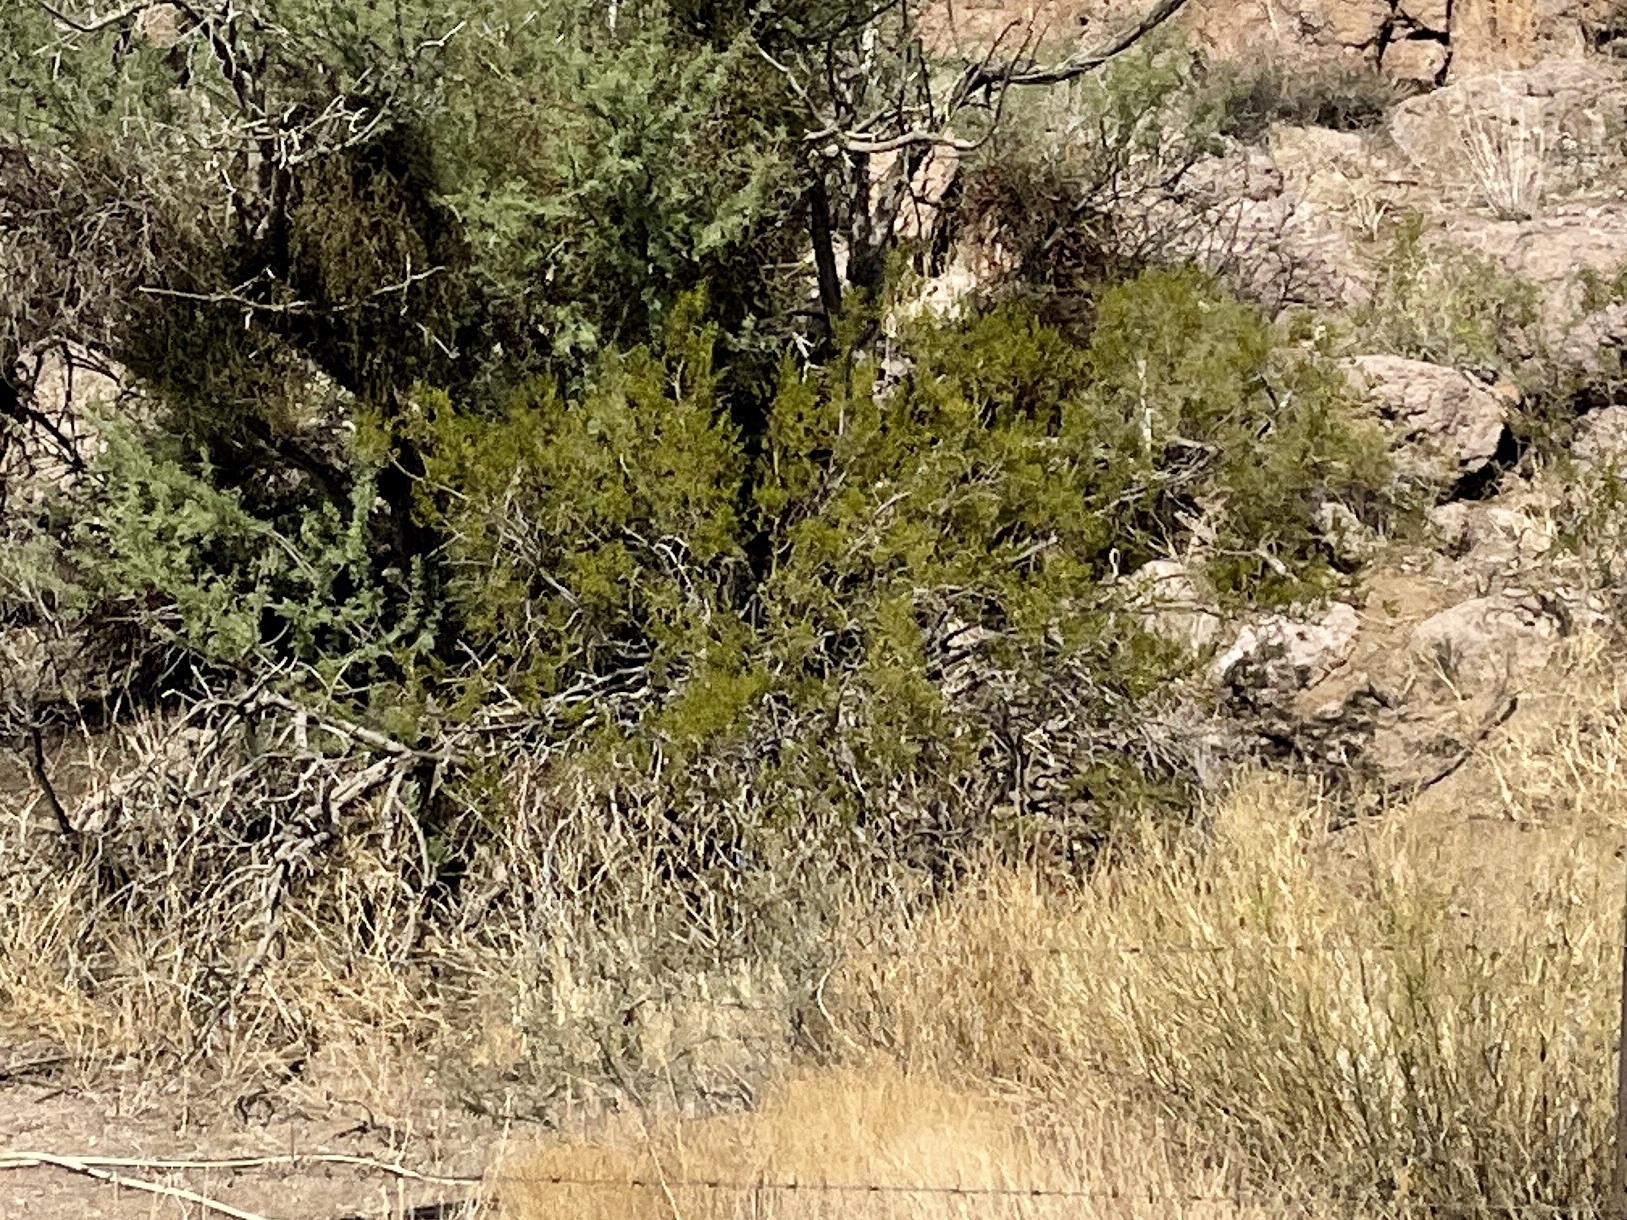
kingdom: Plantae
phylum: Tracheophyta
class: Magnoliopsida
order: Zygophyllales
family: Zygophyllaceae
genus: Larrea
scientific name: Larrea tridentata
